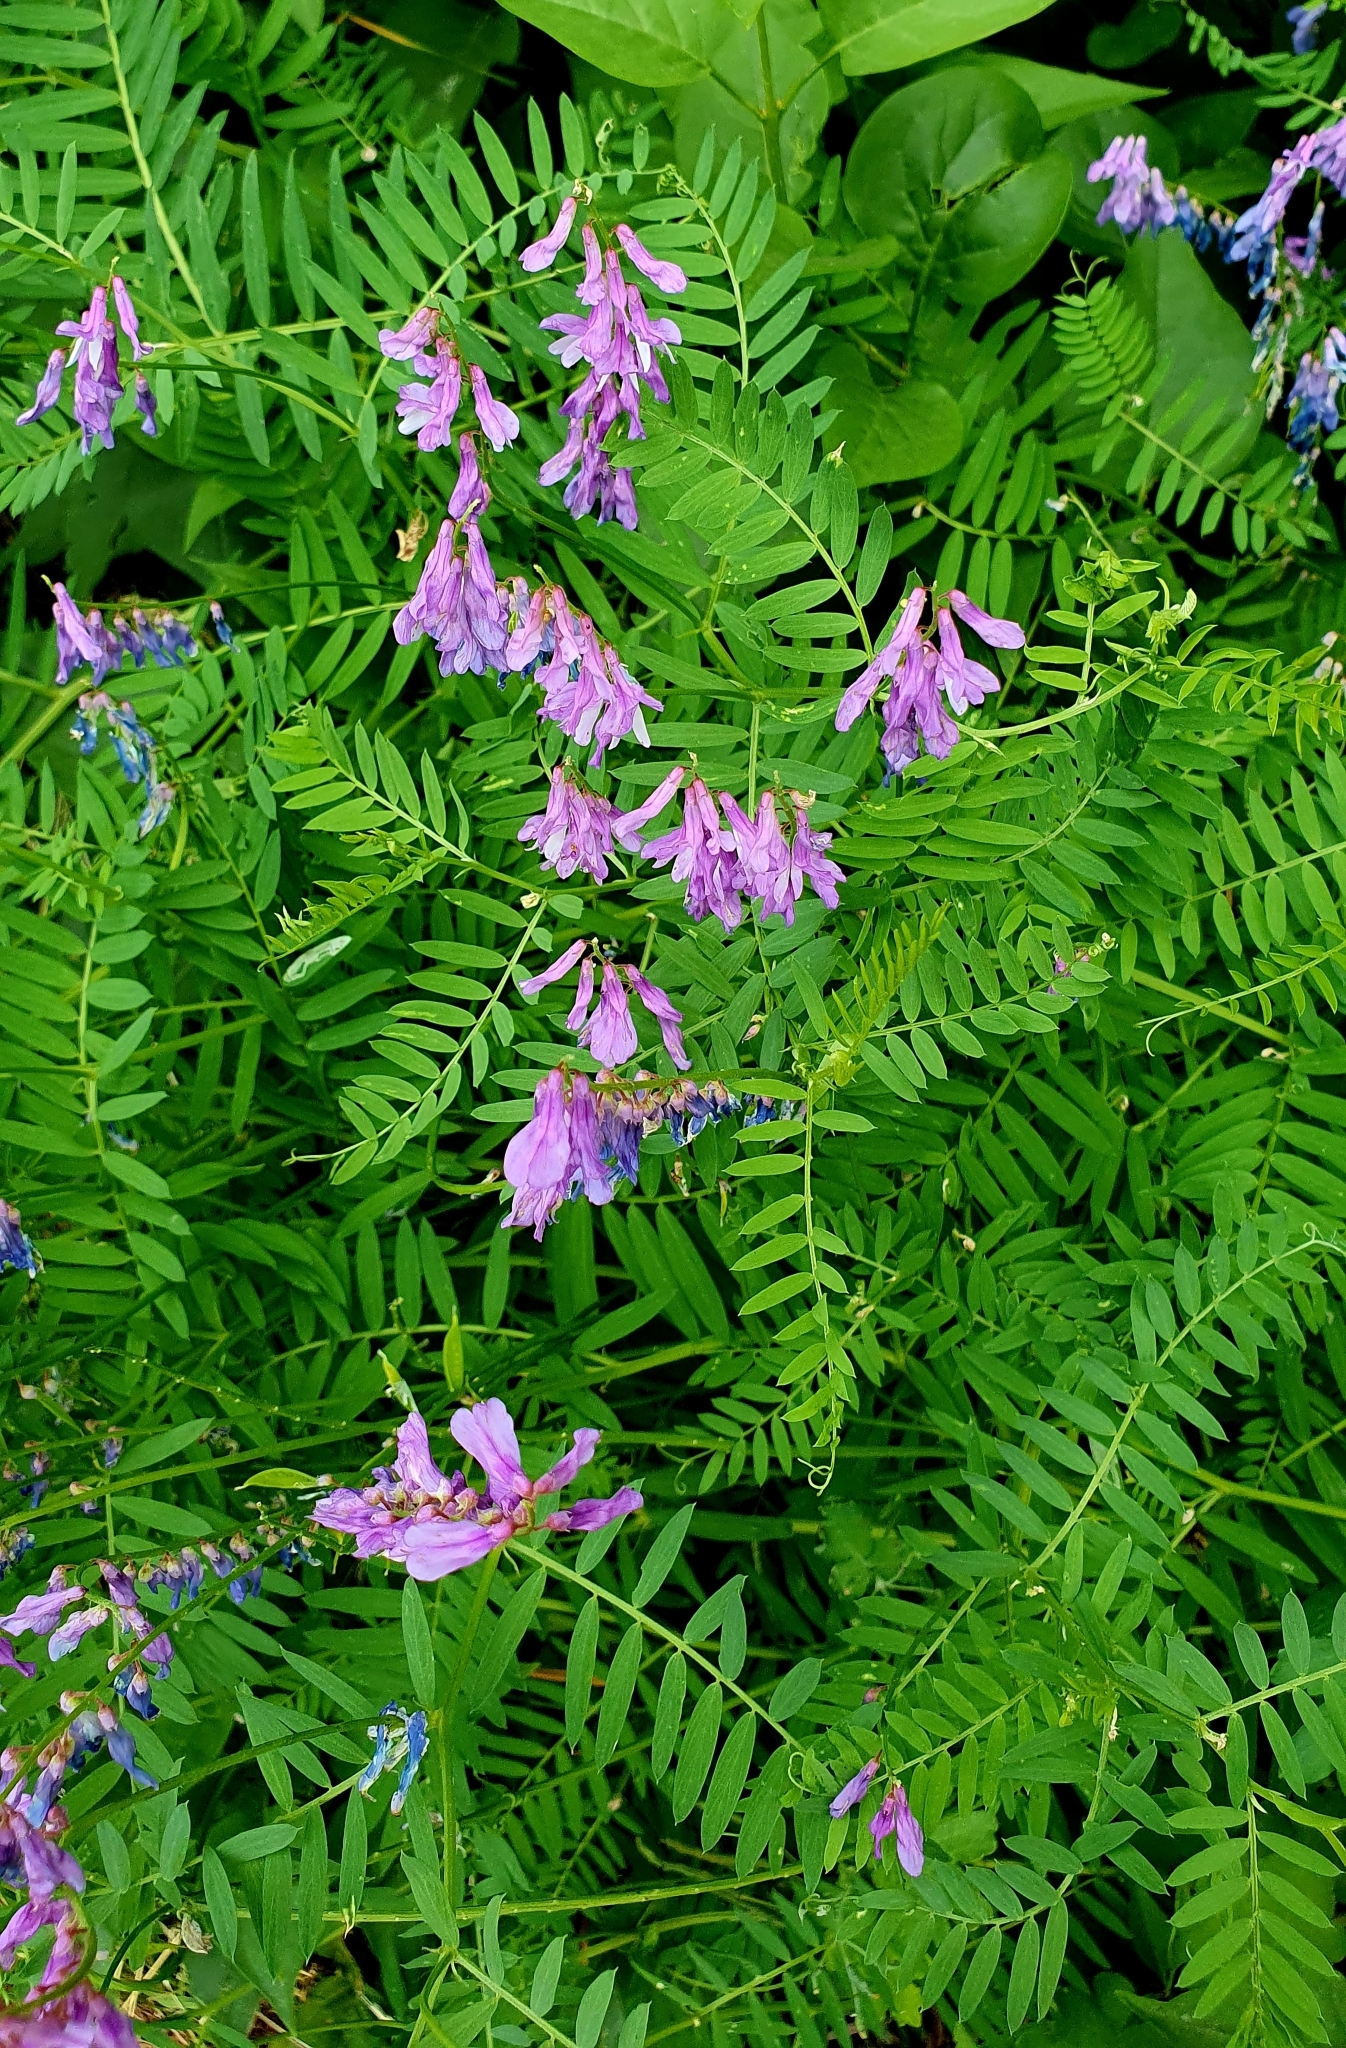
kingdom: Plantae
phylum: Tracheophyta
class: Magnoliopsida
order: Fabales
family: Fabaceae
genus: Vicia
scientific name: Vicia tenuifolia
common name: Fine-leaved vetch
